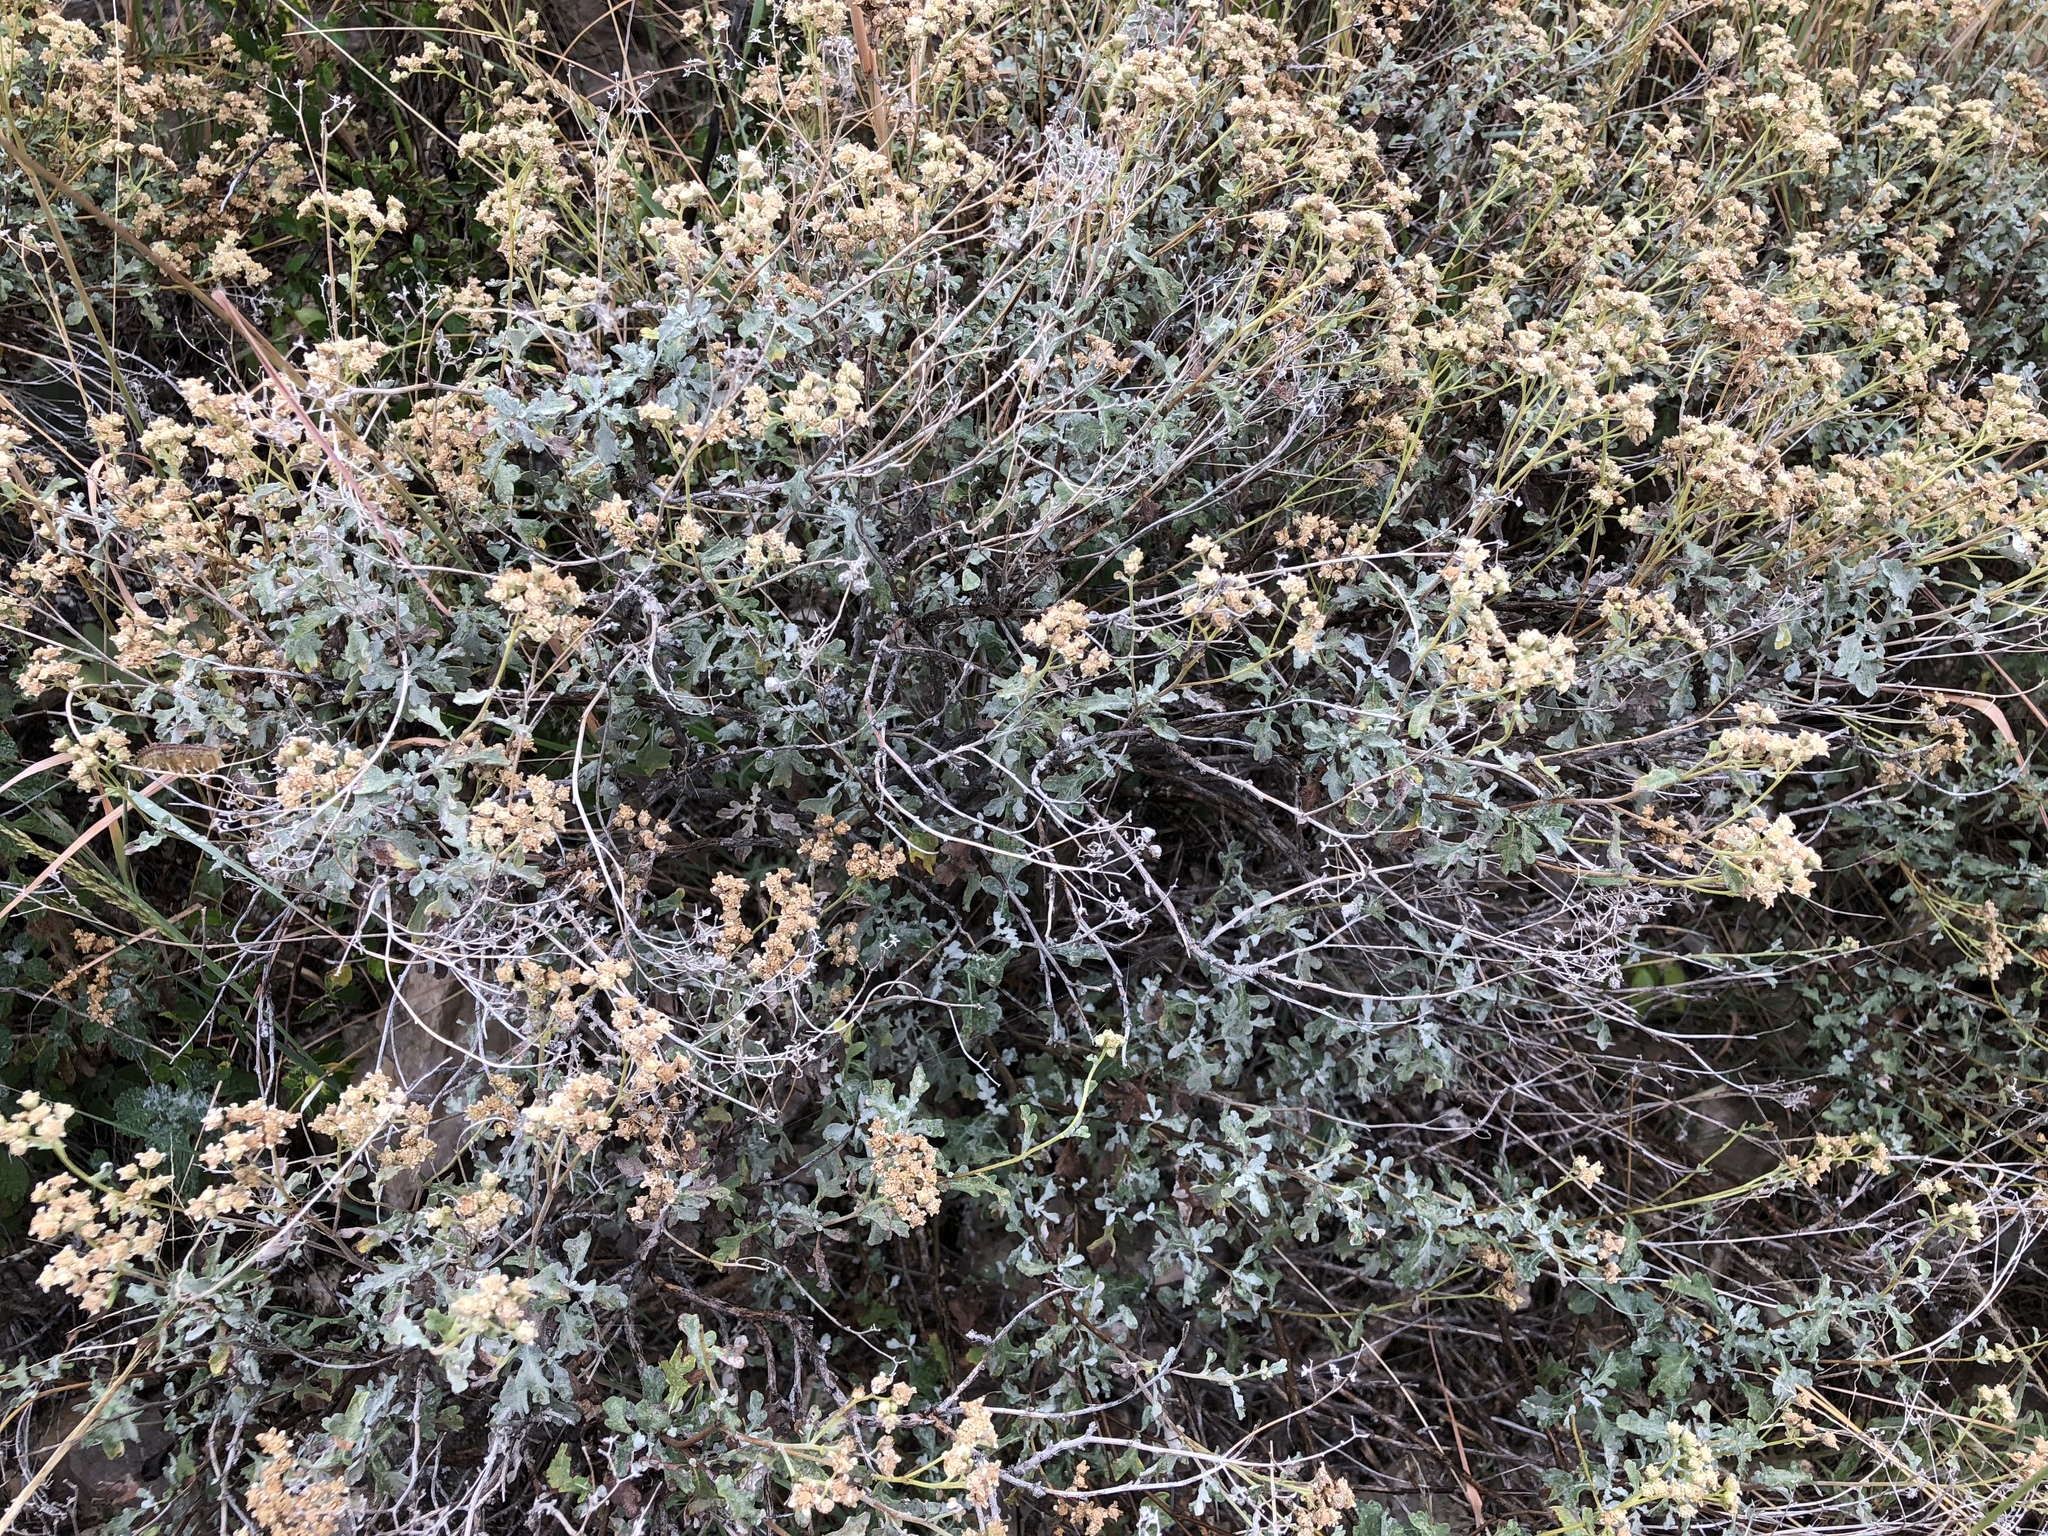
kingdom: Plantae
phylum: Tracheophyta
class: Magnoliopsida
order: Asterales
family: Asteraceae
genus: Parthenium
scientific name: Parthenium incanum
